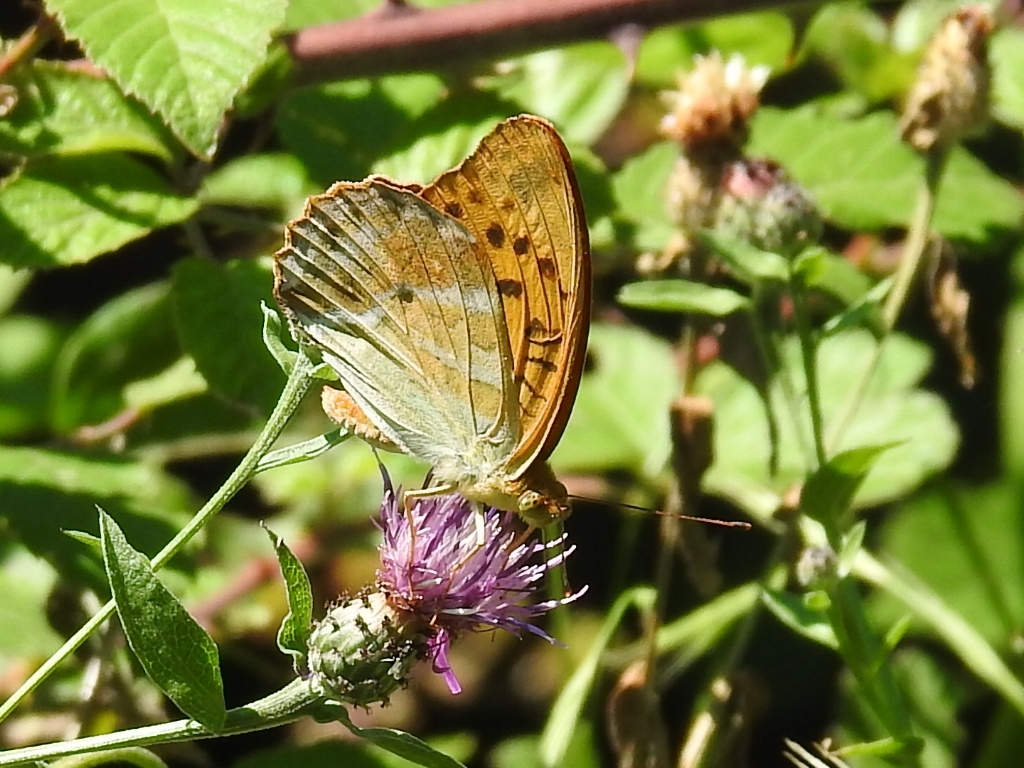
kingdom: Animalia
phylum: Arthropoda
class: Insecta
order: Lepidoptera
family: Nymphalidae
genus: Argynnis
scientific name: Argynnis paphia
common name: Silver-washed fritillary
